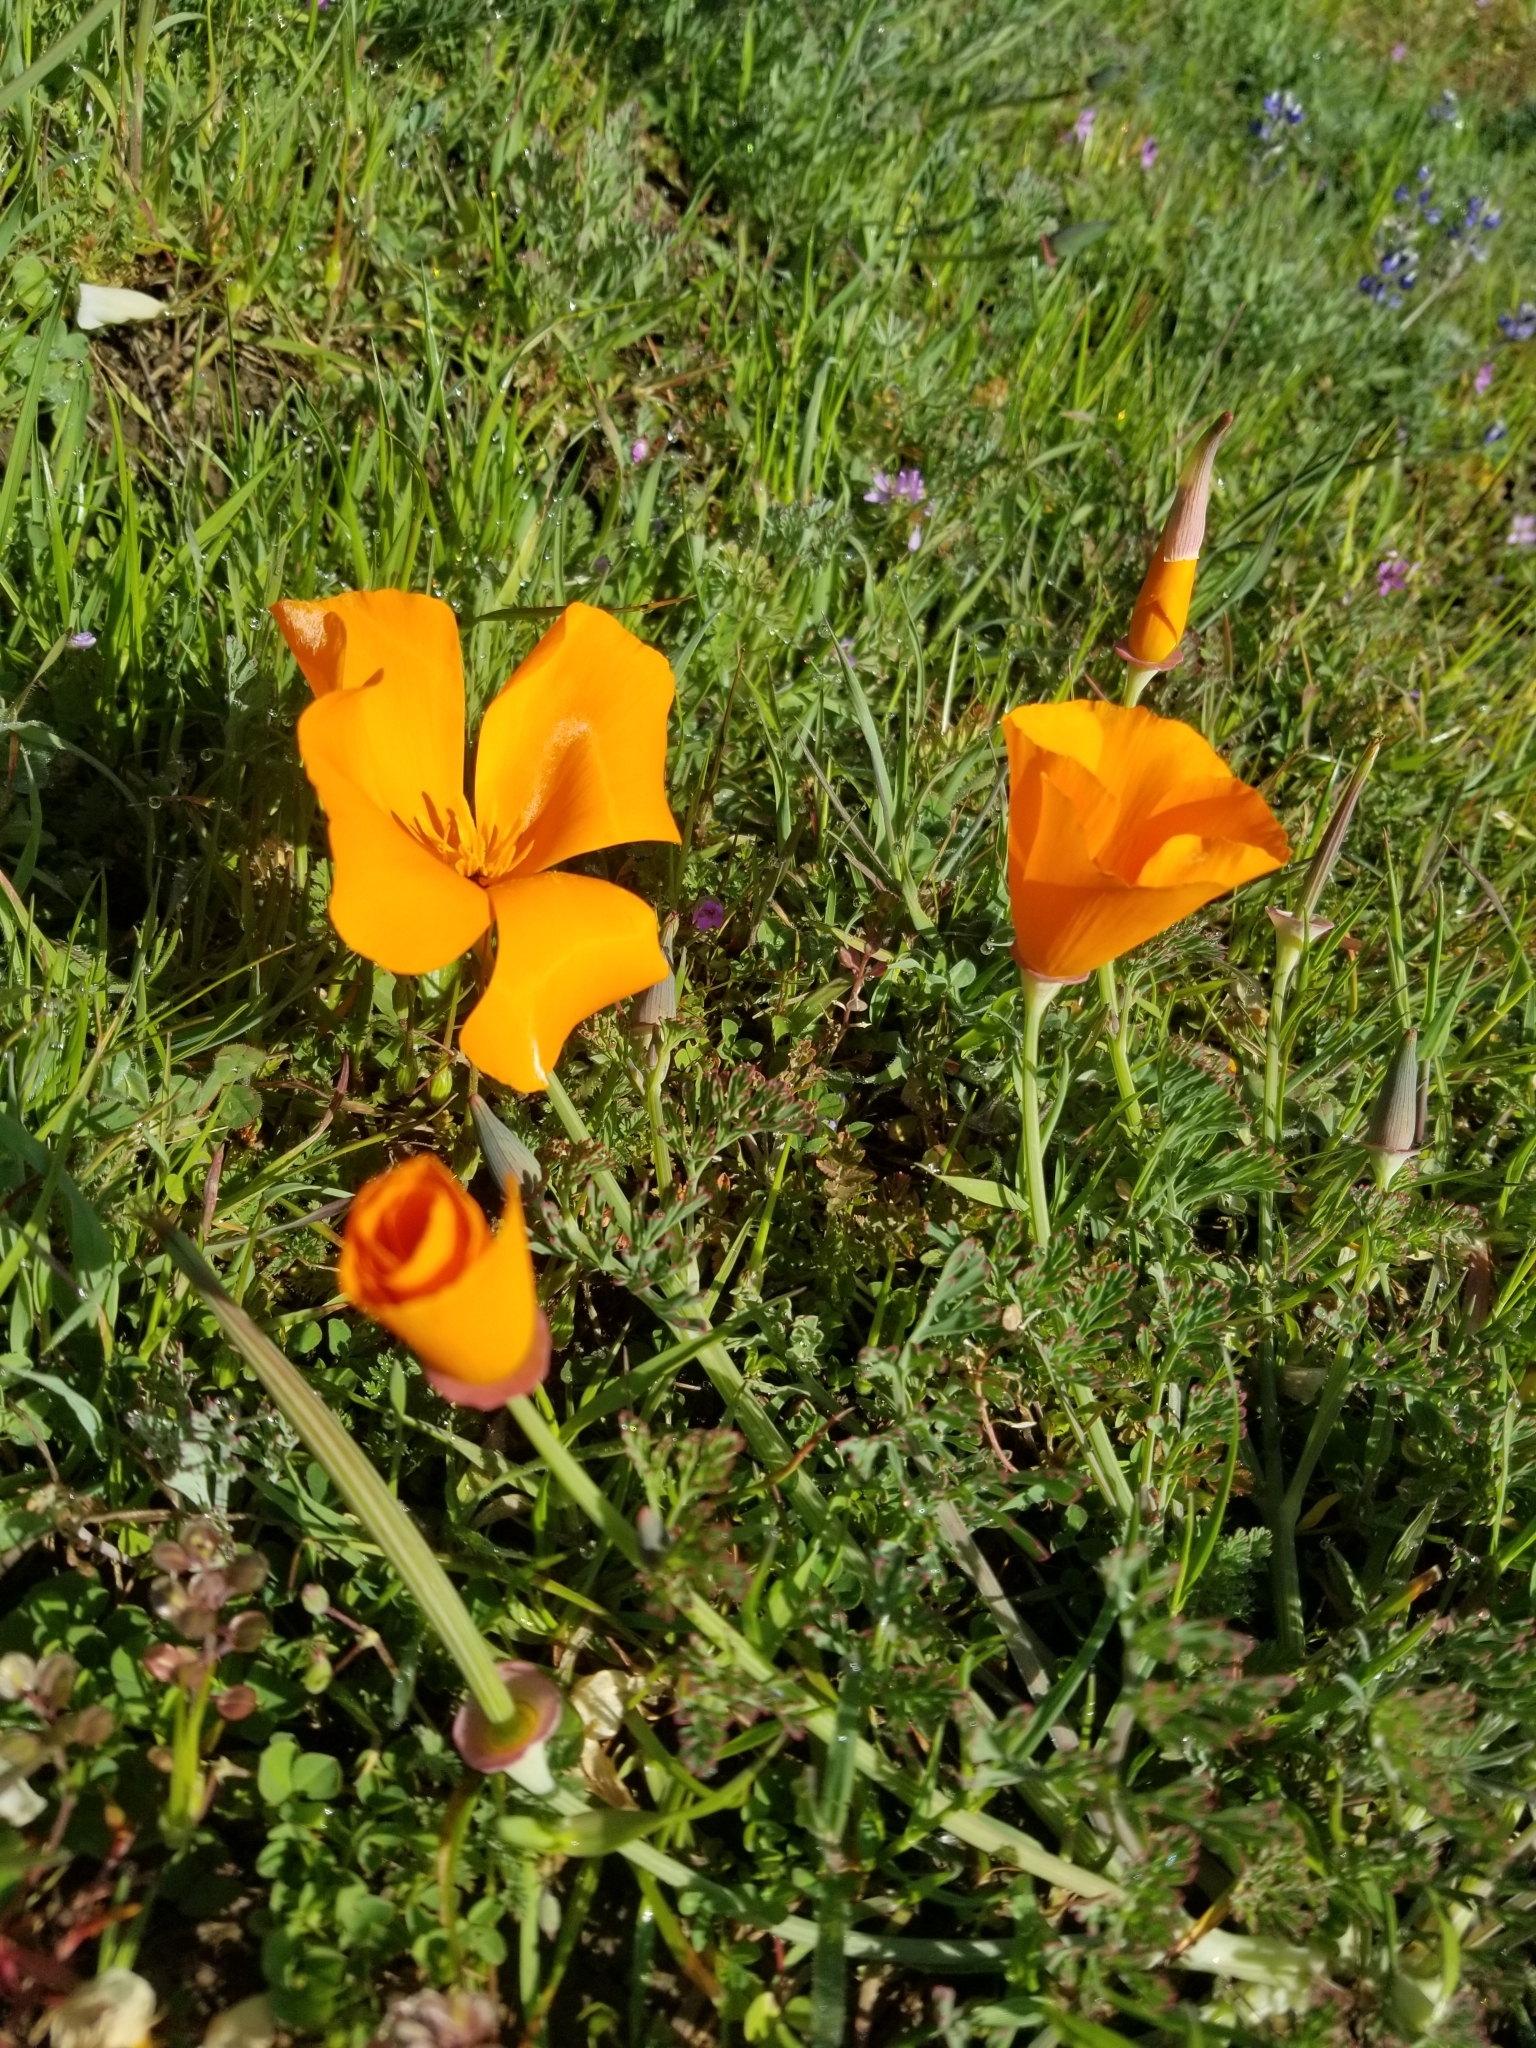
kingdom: Plantae
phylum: Tracheophyta
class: Magnoliopsida
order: Ranunculales
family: Papaveraceae
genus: Eschscholzia
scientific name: Eschscholzia californica
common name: California poppy
